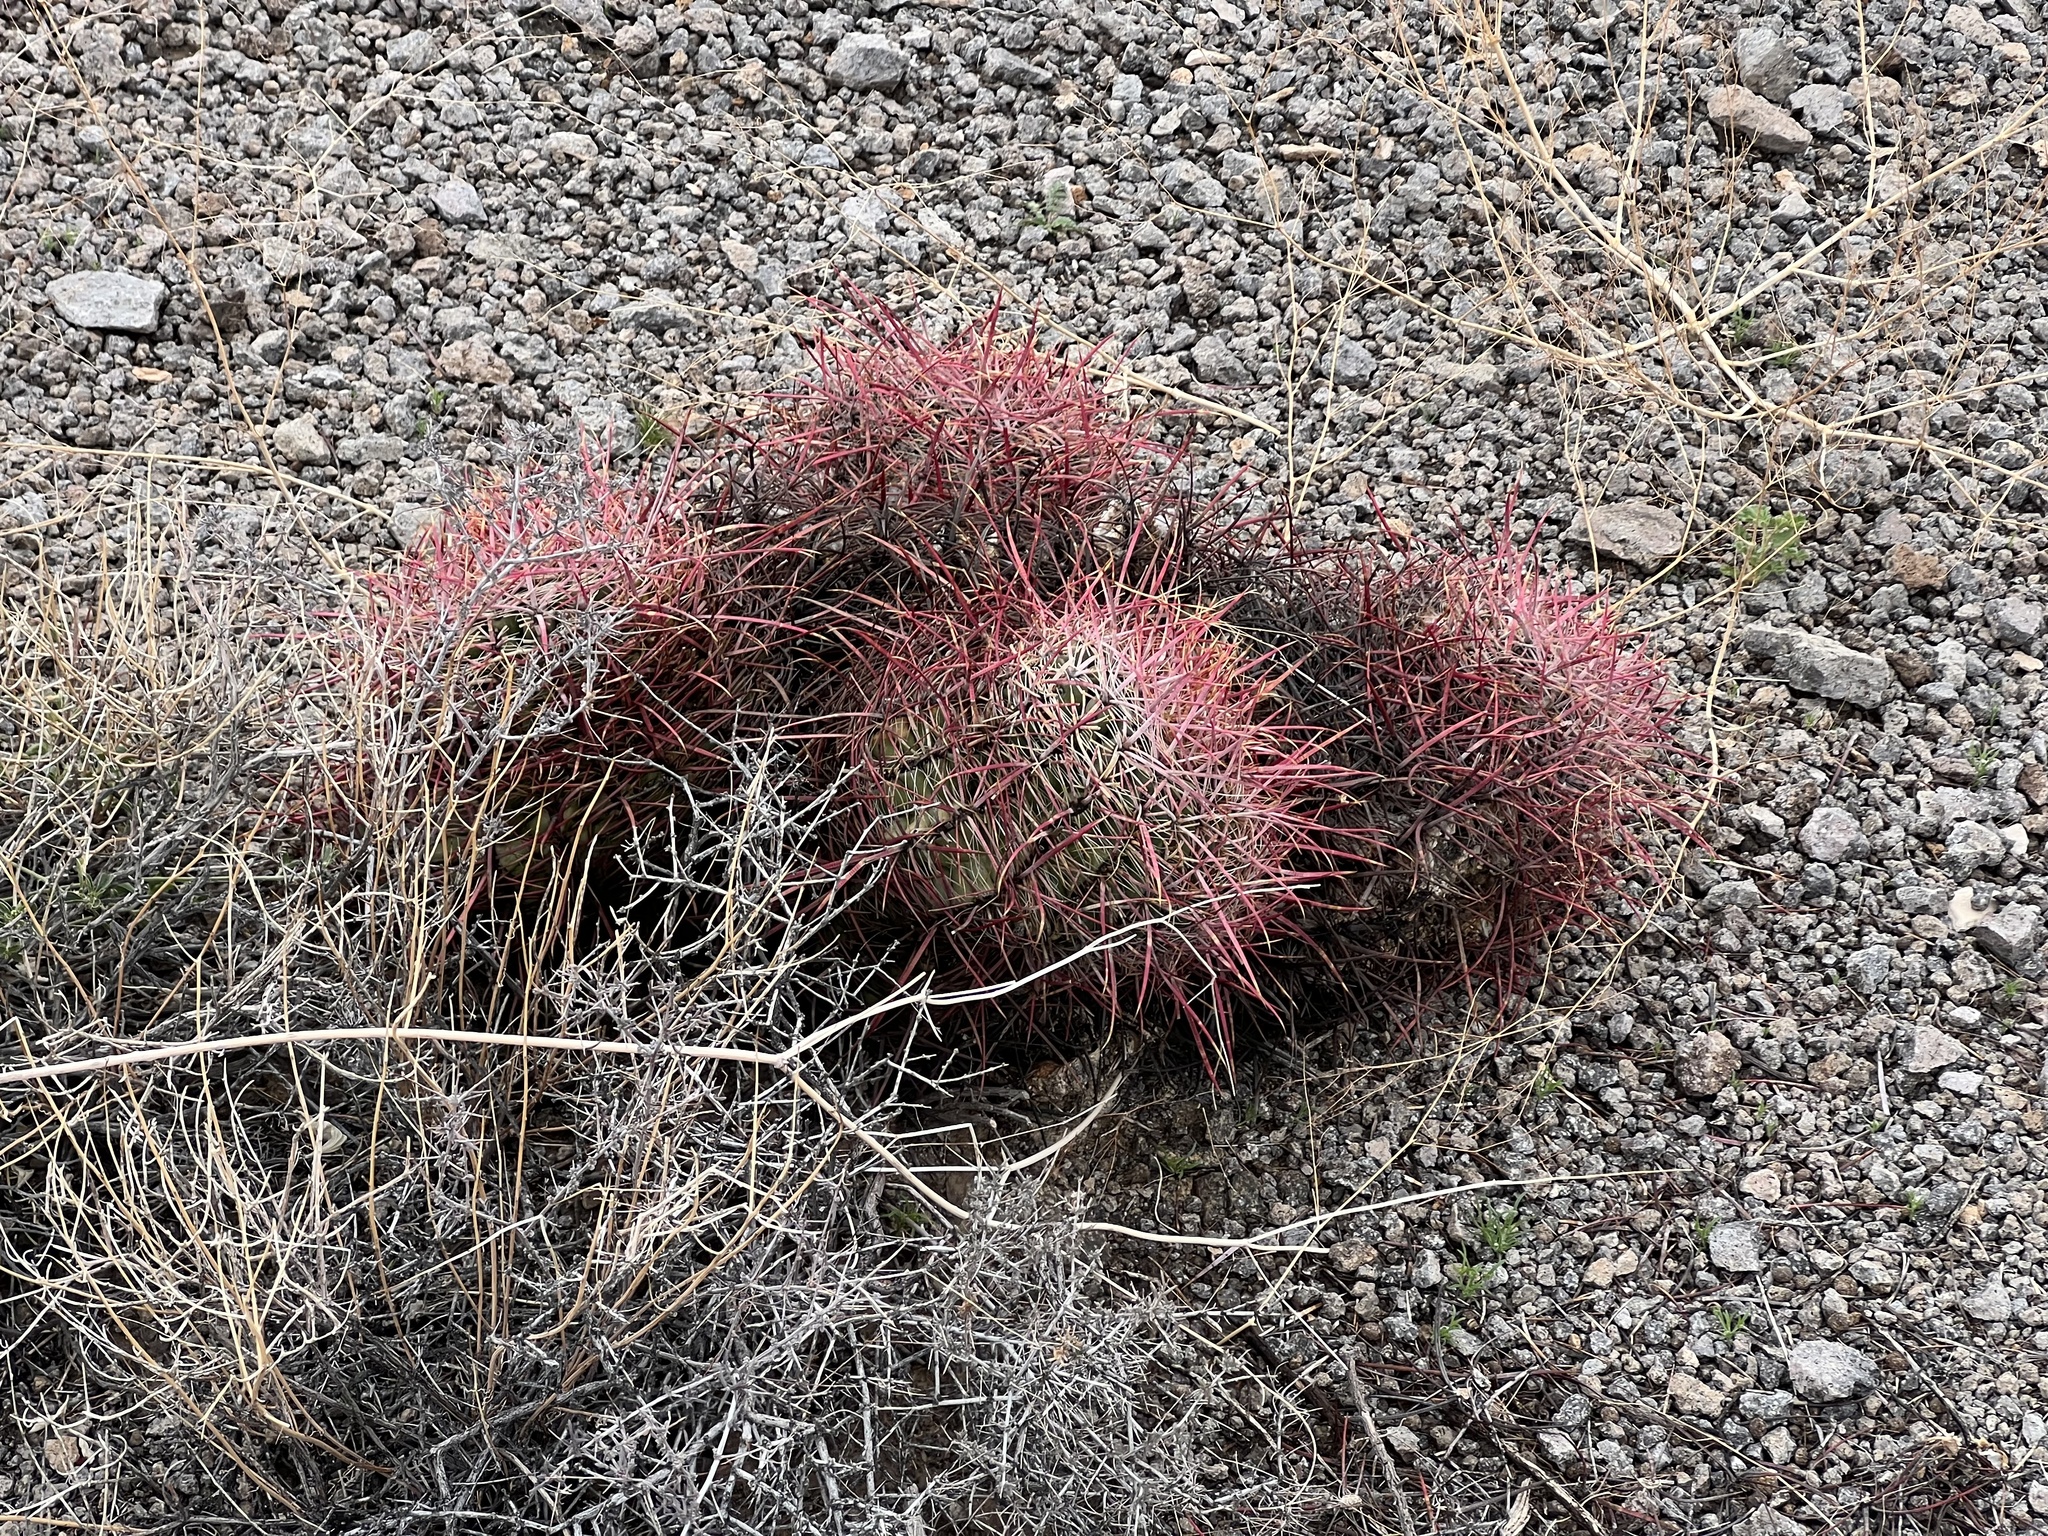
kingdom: Plantae
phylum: Tracheophyta
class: Magnoliopsida
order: Caryophyllales
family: Cactaceae
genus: Ferocactus
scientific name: Ferocactus cylindraceus
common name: California barrel cactus
